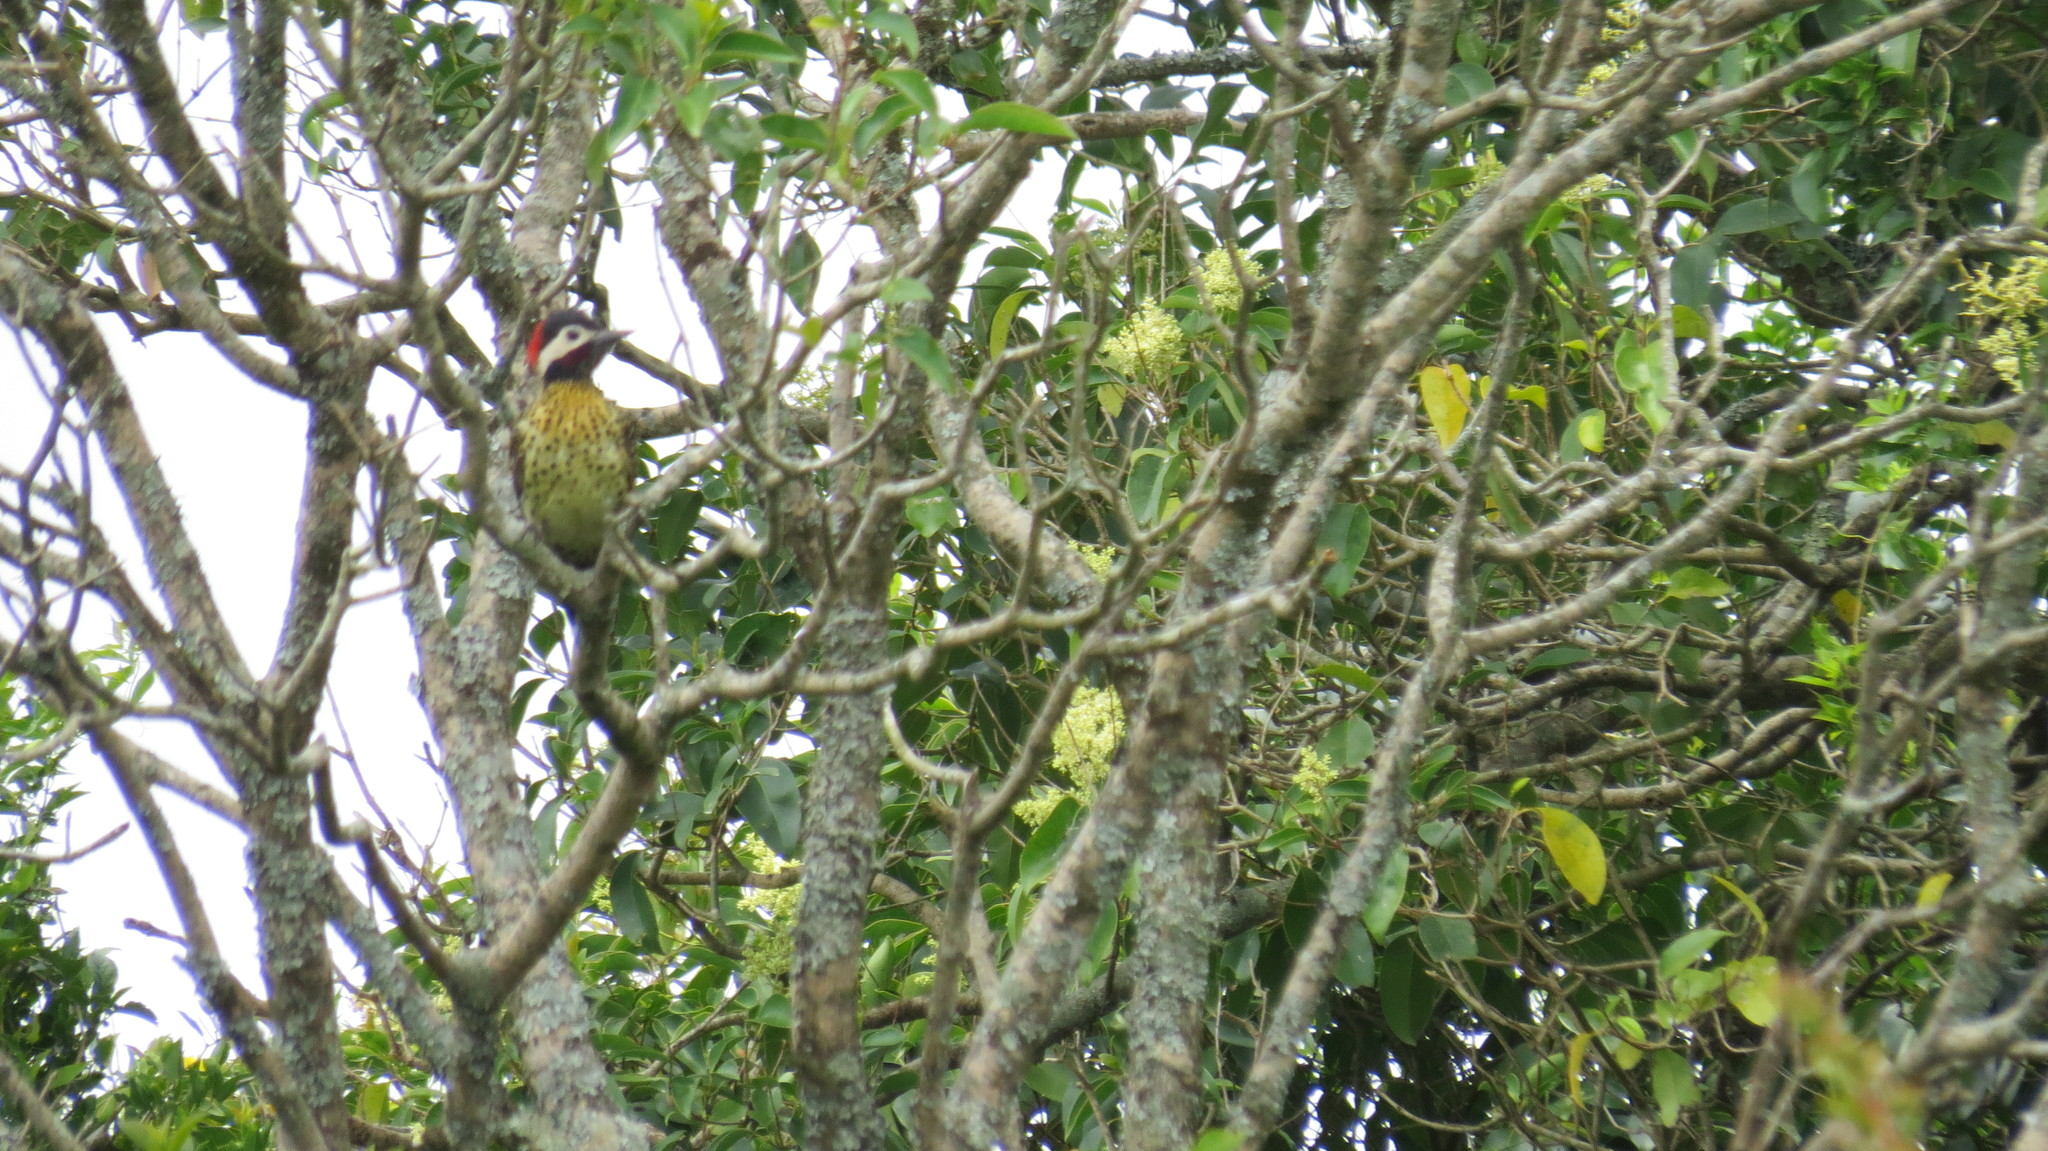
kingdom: Animalia
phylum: Chordata
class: Aves
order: Piciformes
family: Picidae
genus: Colaptes
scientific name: Colaptes melanochloros
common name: Green-barred woodpecker
